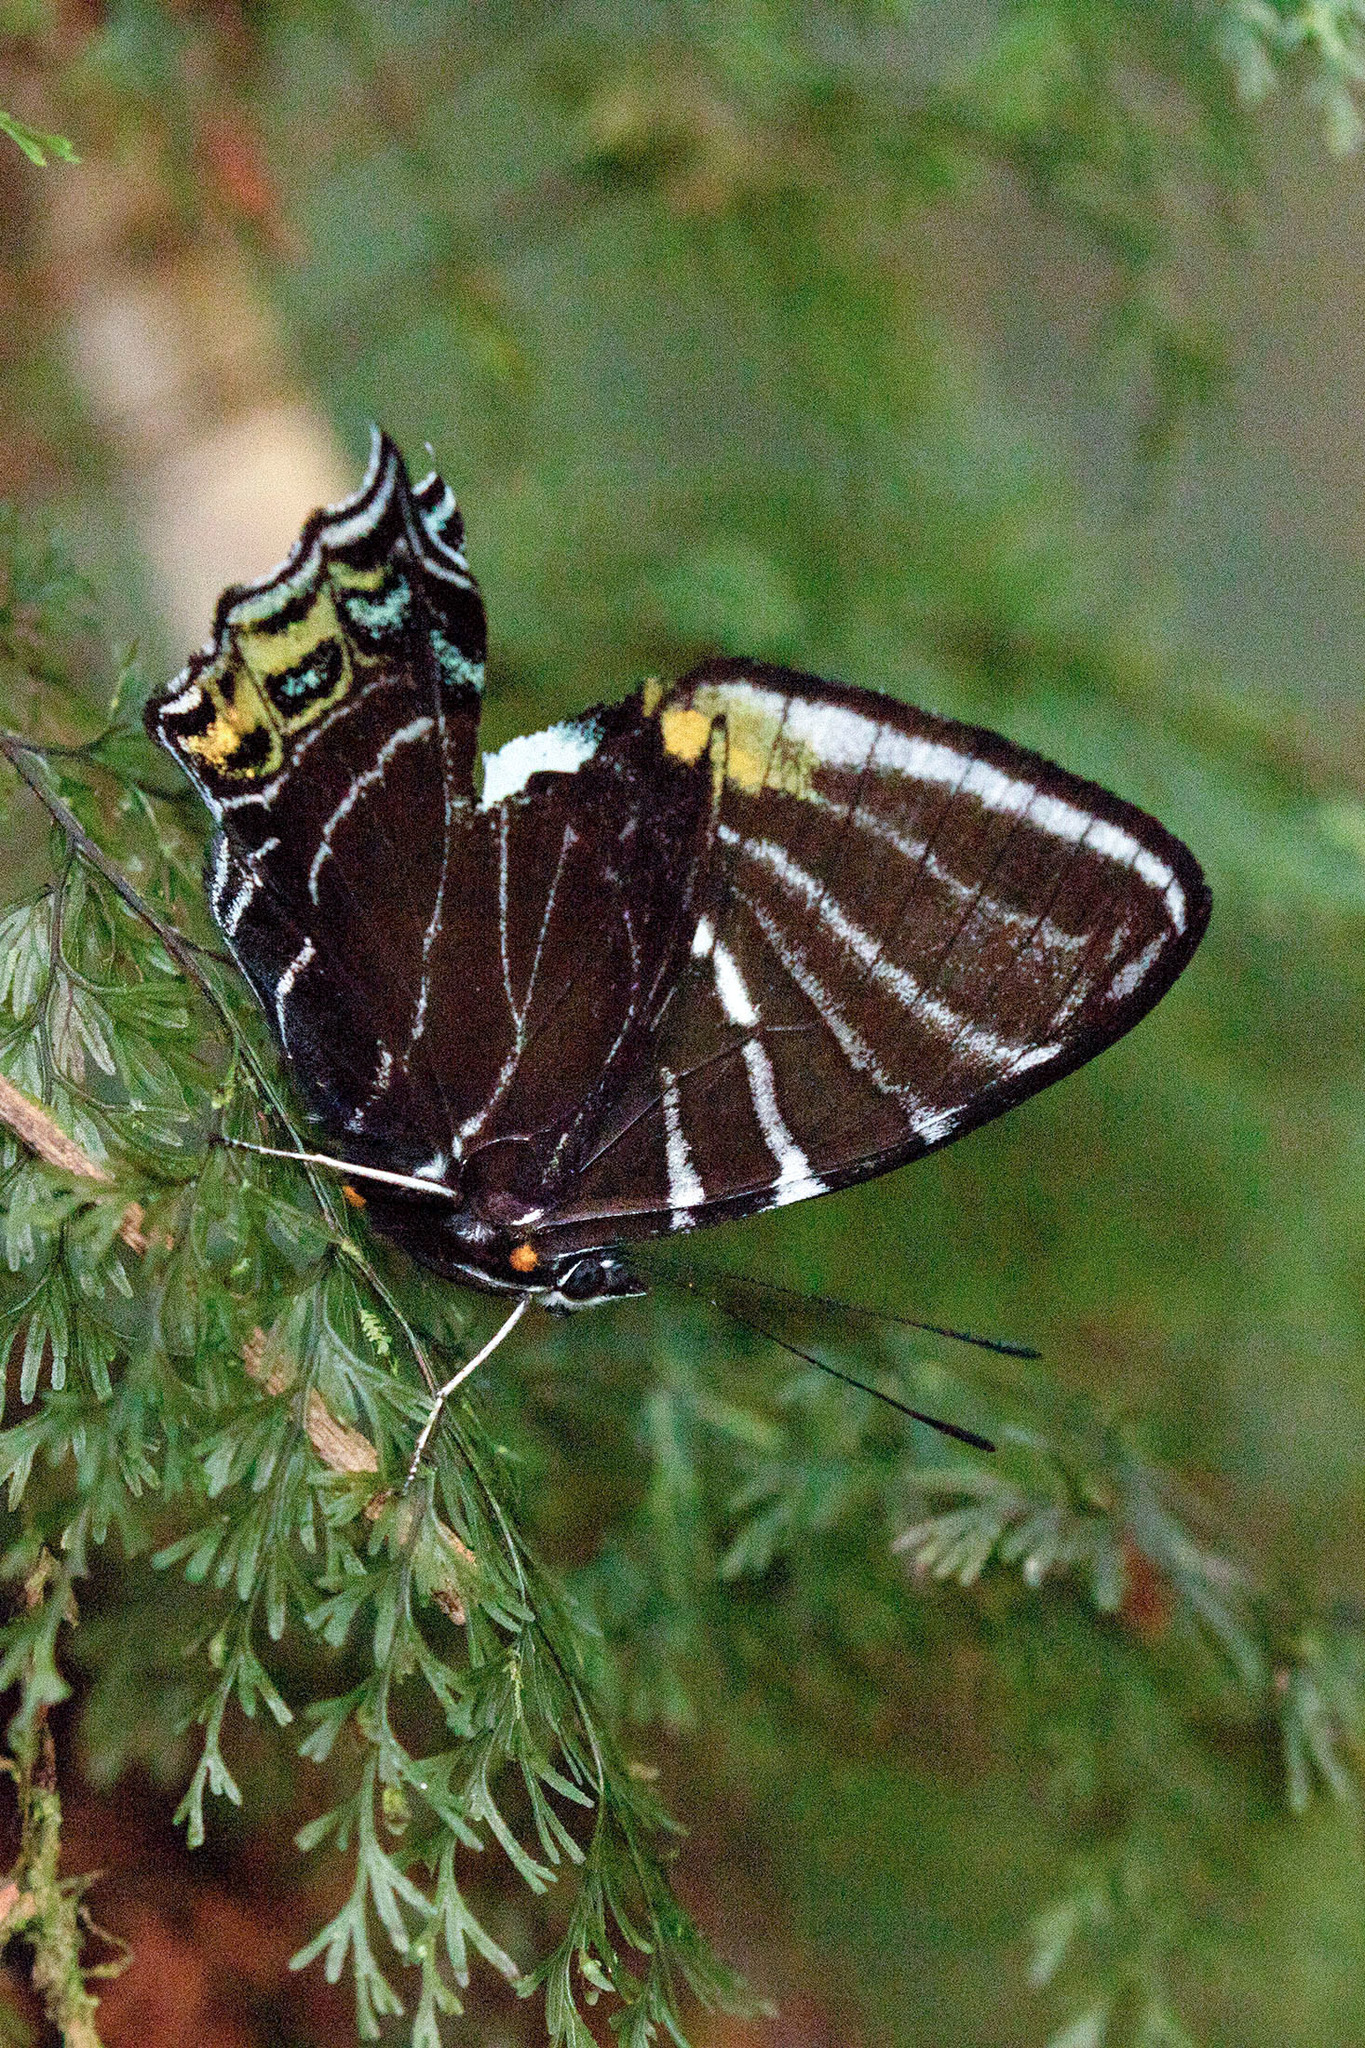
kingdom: Animalia
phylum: Arthropoda
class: Insecta
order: Lepidoptera
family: Nymphalidae
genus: Mynes
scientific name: Mynes
